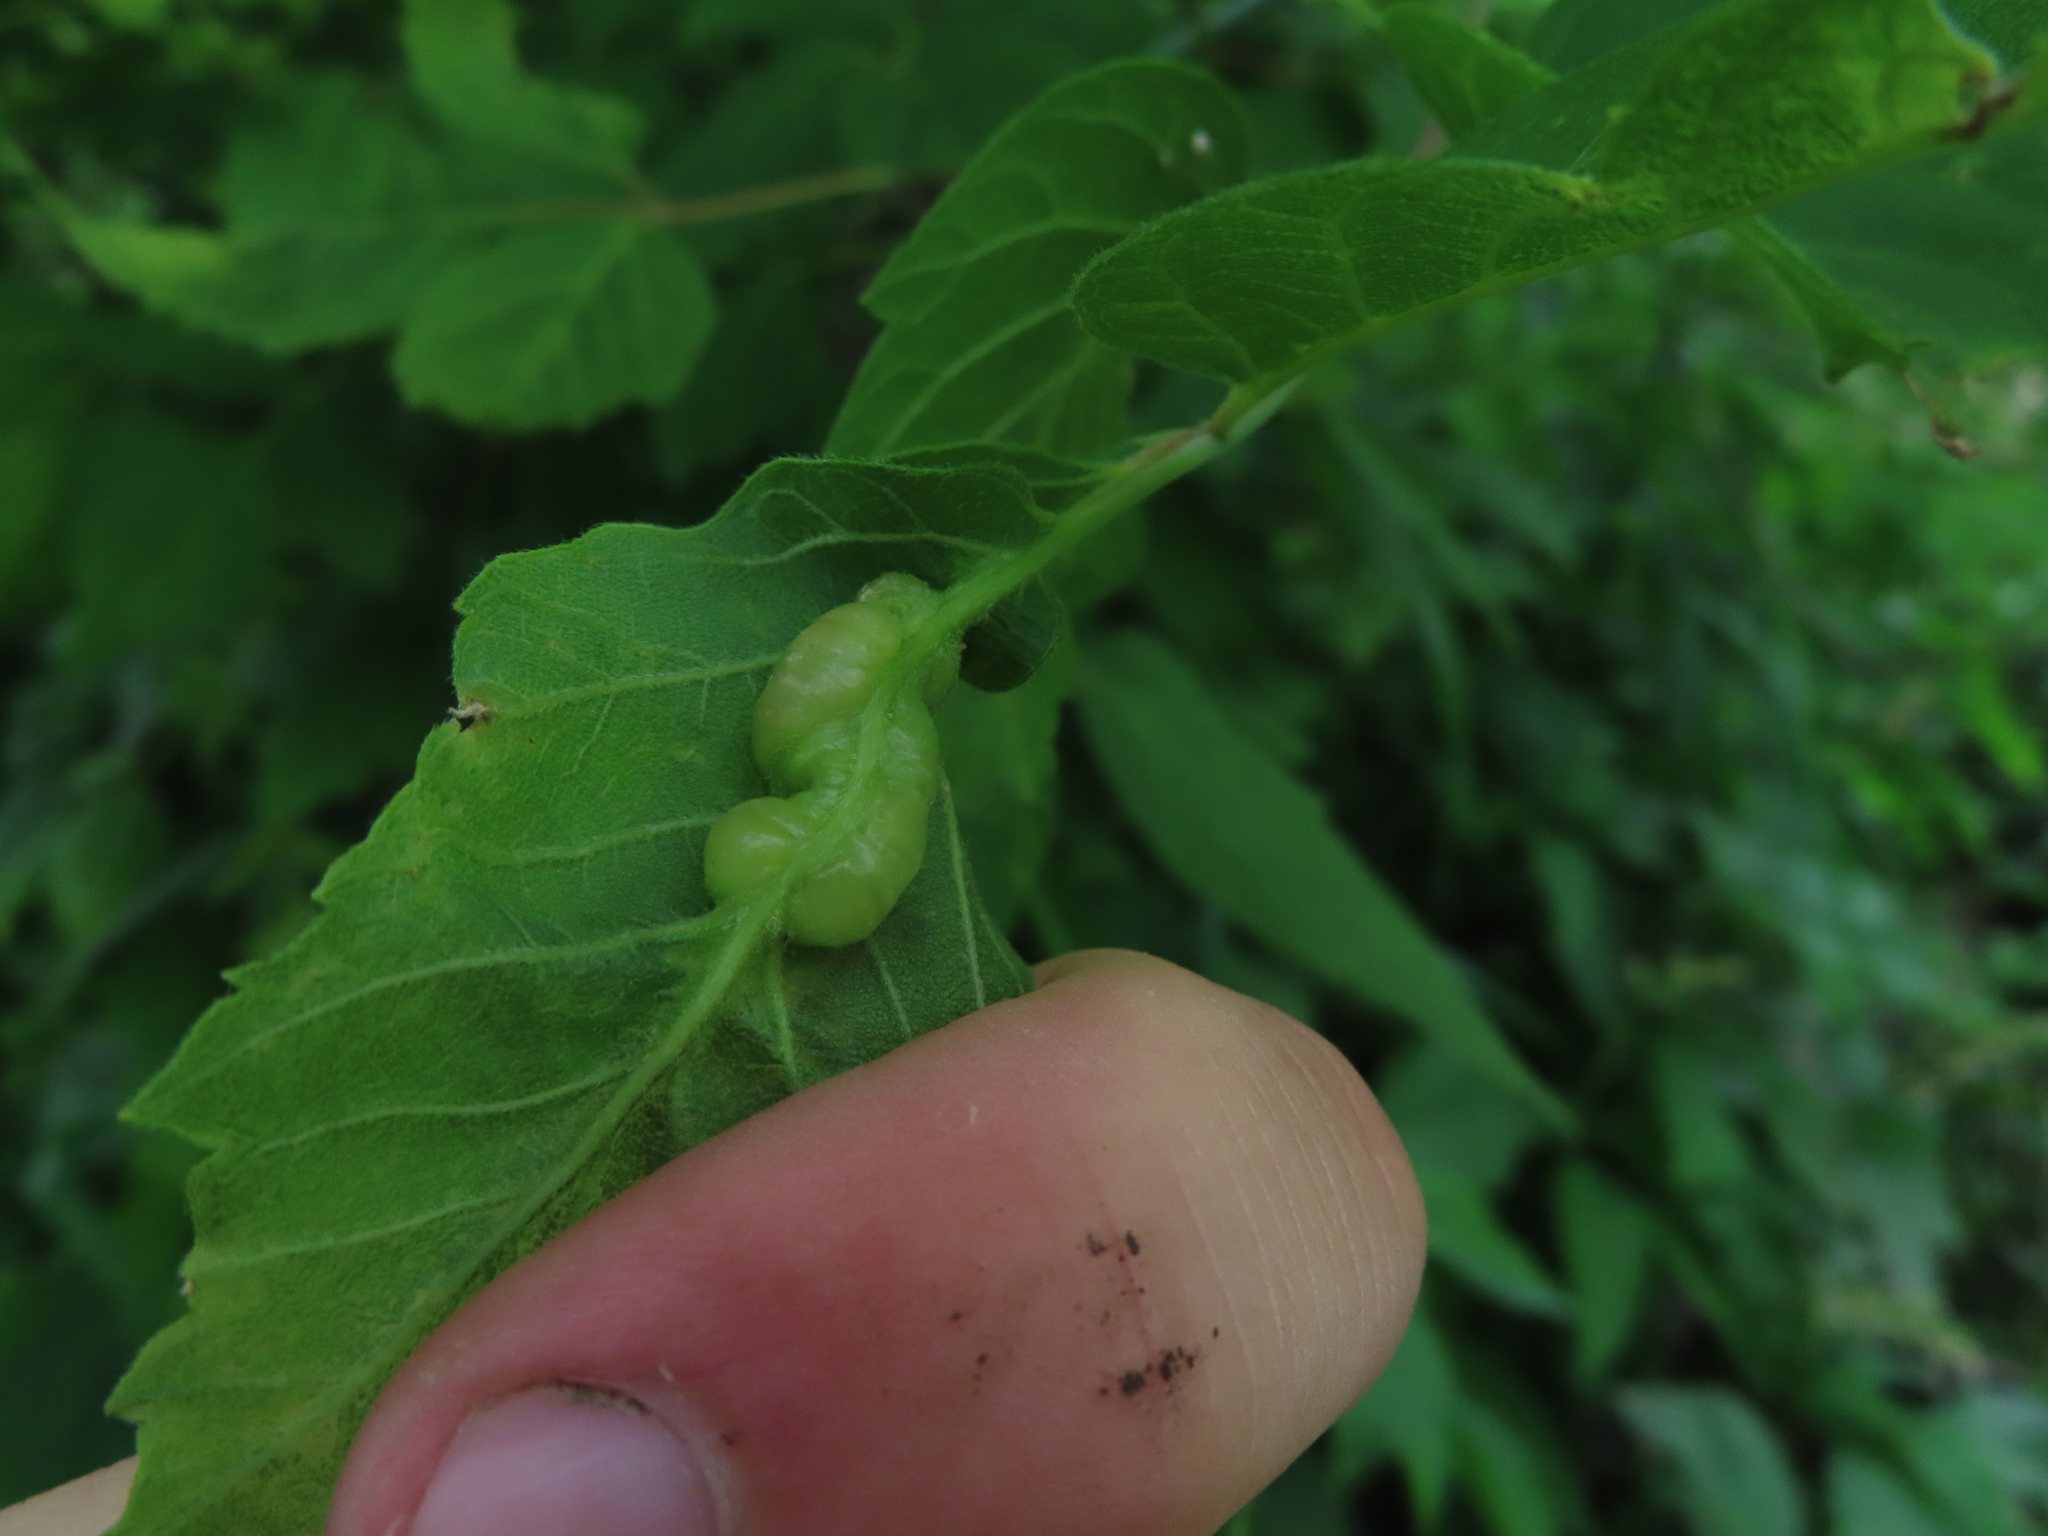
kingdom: Animalia
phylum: Arthropoda
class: Insecta
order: Diptera
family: Cecidomyiidae
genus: Contarinia
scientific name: Contarinia negundinis
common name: Boxelder budgall midge
